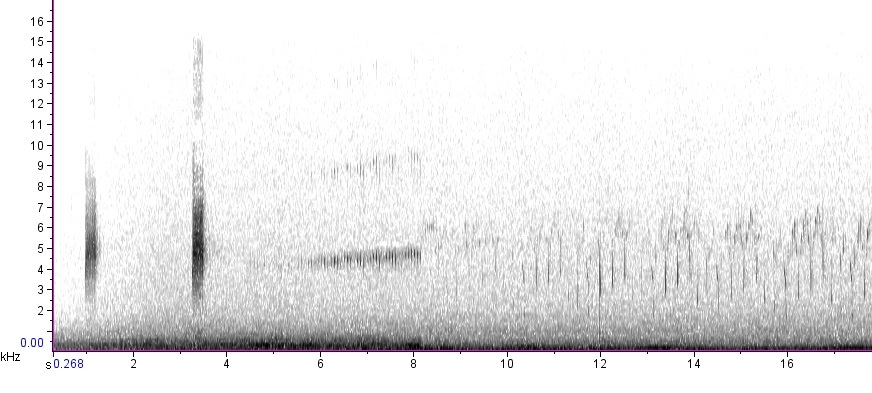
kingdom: Animalia
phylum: Chordata
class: Aves
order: Charadriiformes
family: Scolopacidae
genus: Scolopax
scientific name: Scolopax minor
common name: American woodcock
